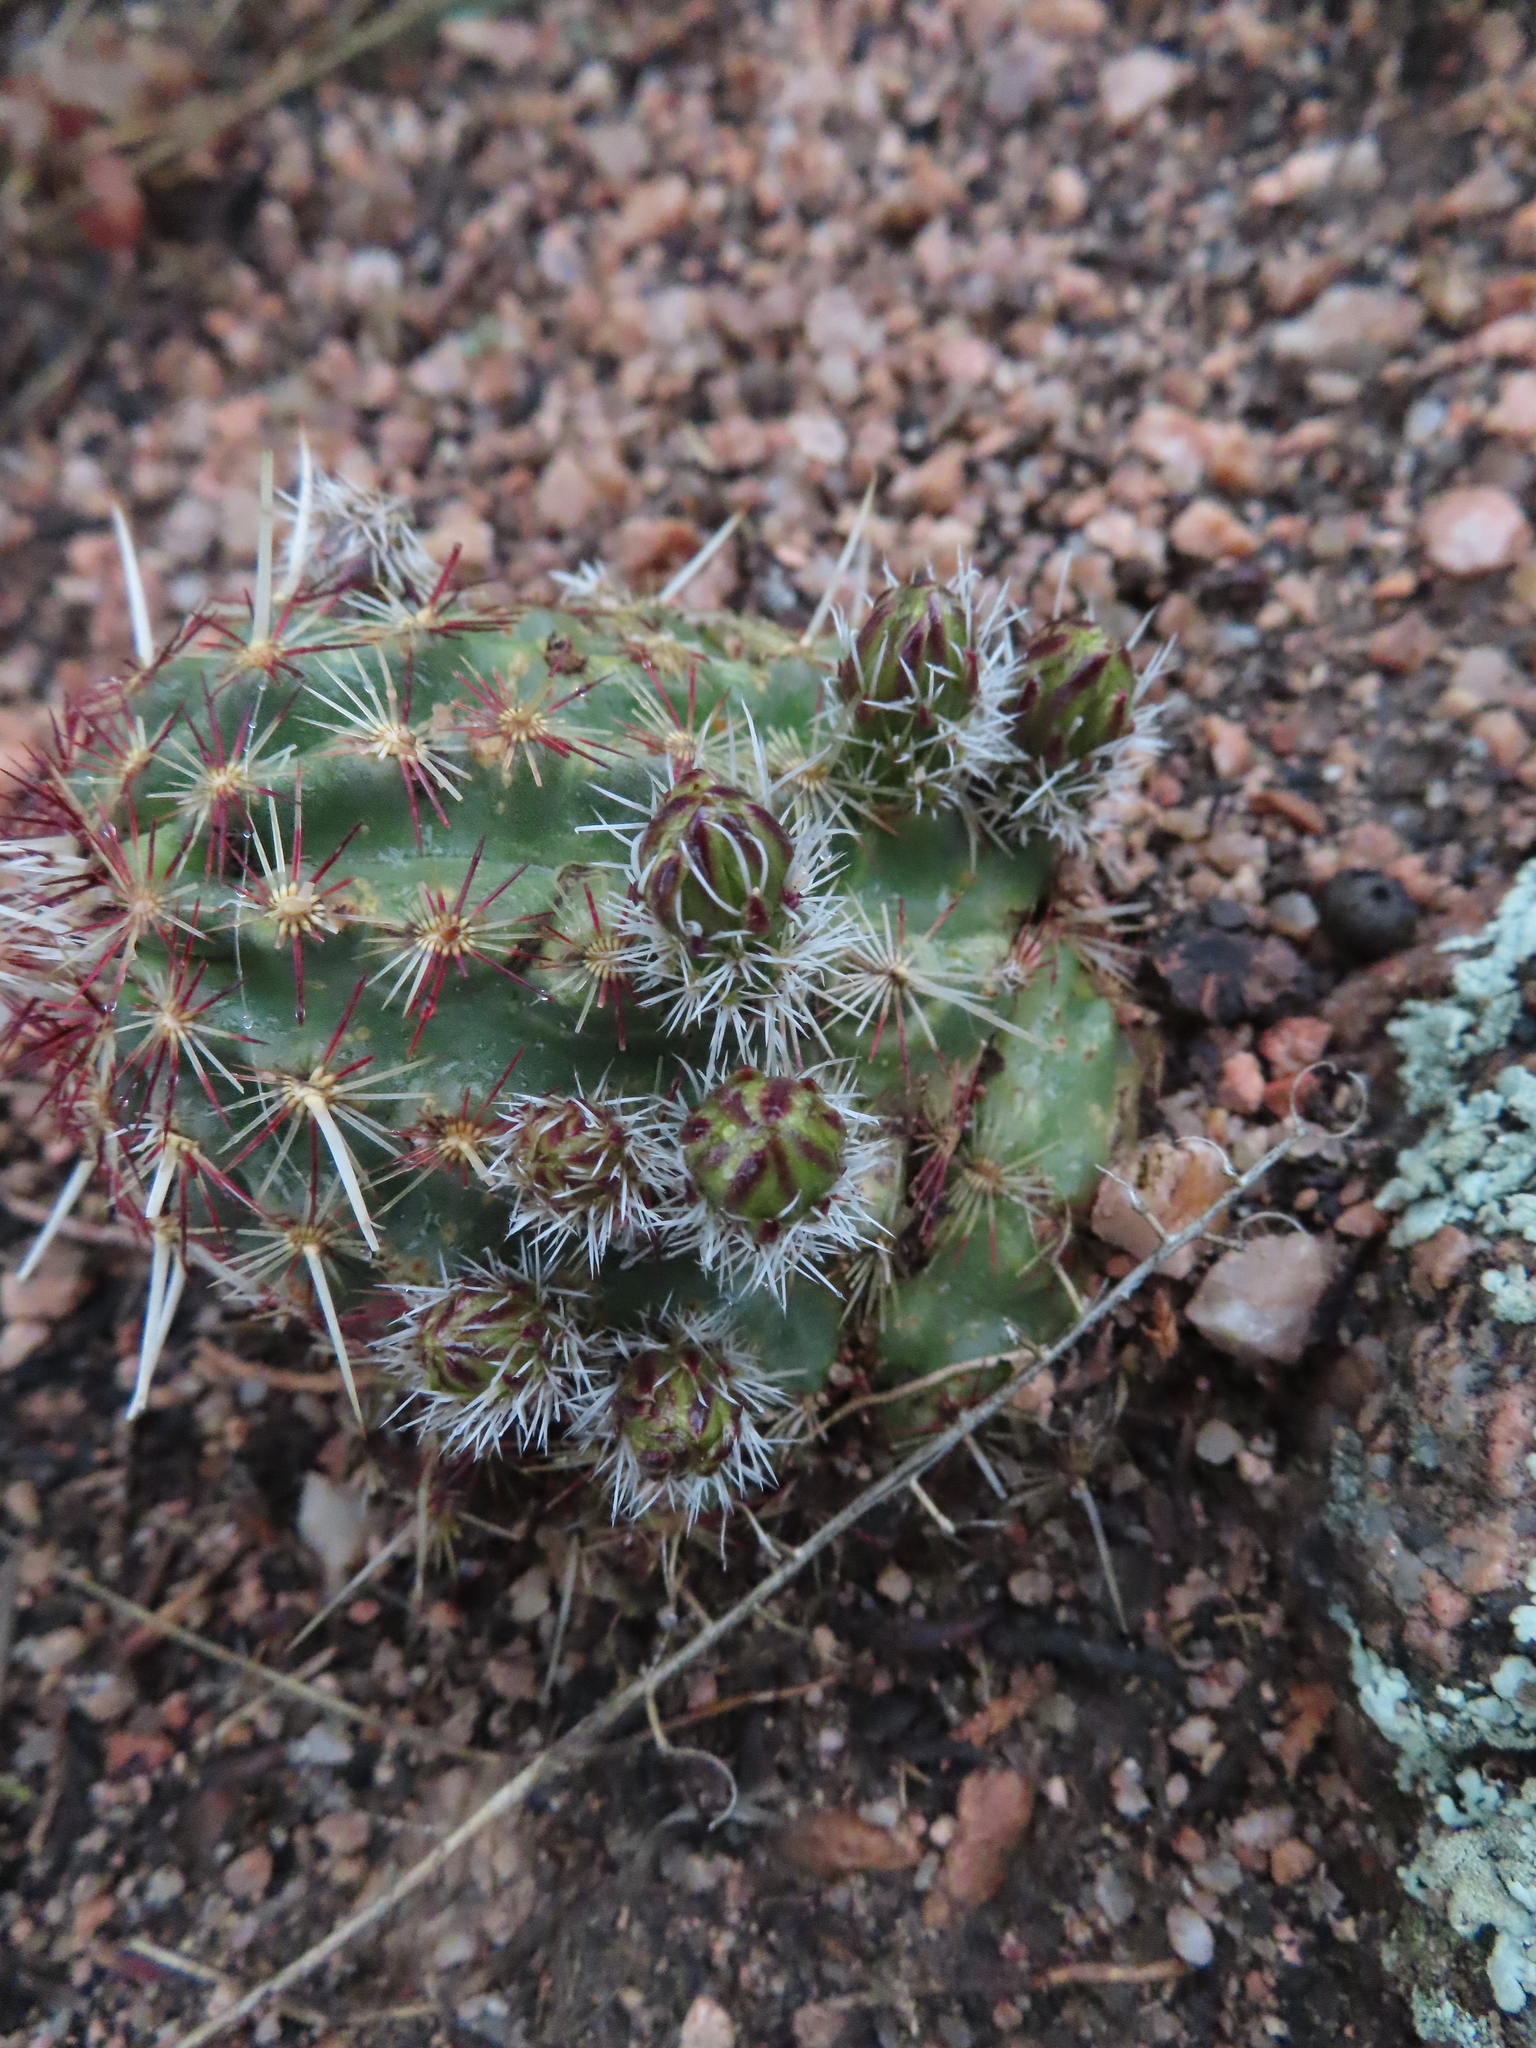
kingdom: Plantae
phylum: Tracheophyta
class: Magnoliopsida
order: Caryophyllales
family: Cactaceae
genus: Echinocereus
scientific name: Echinocereus viridiflorus
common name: Nylon hedgehog cactus
